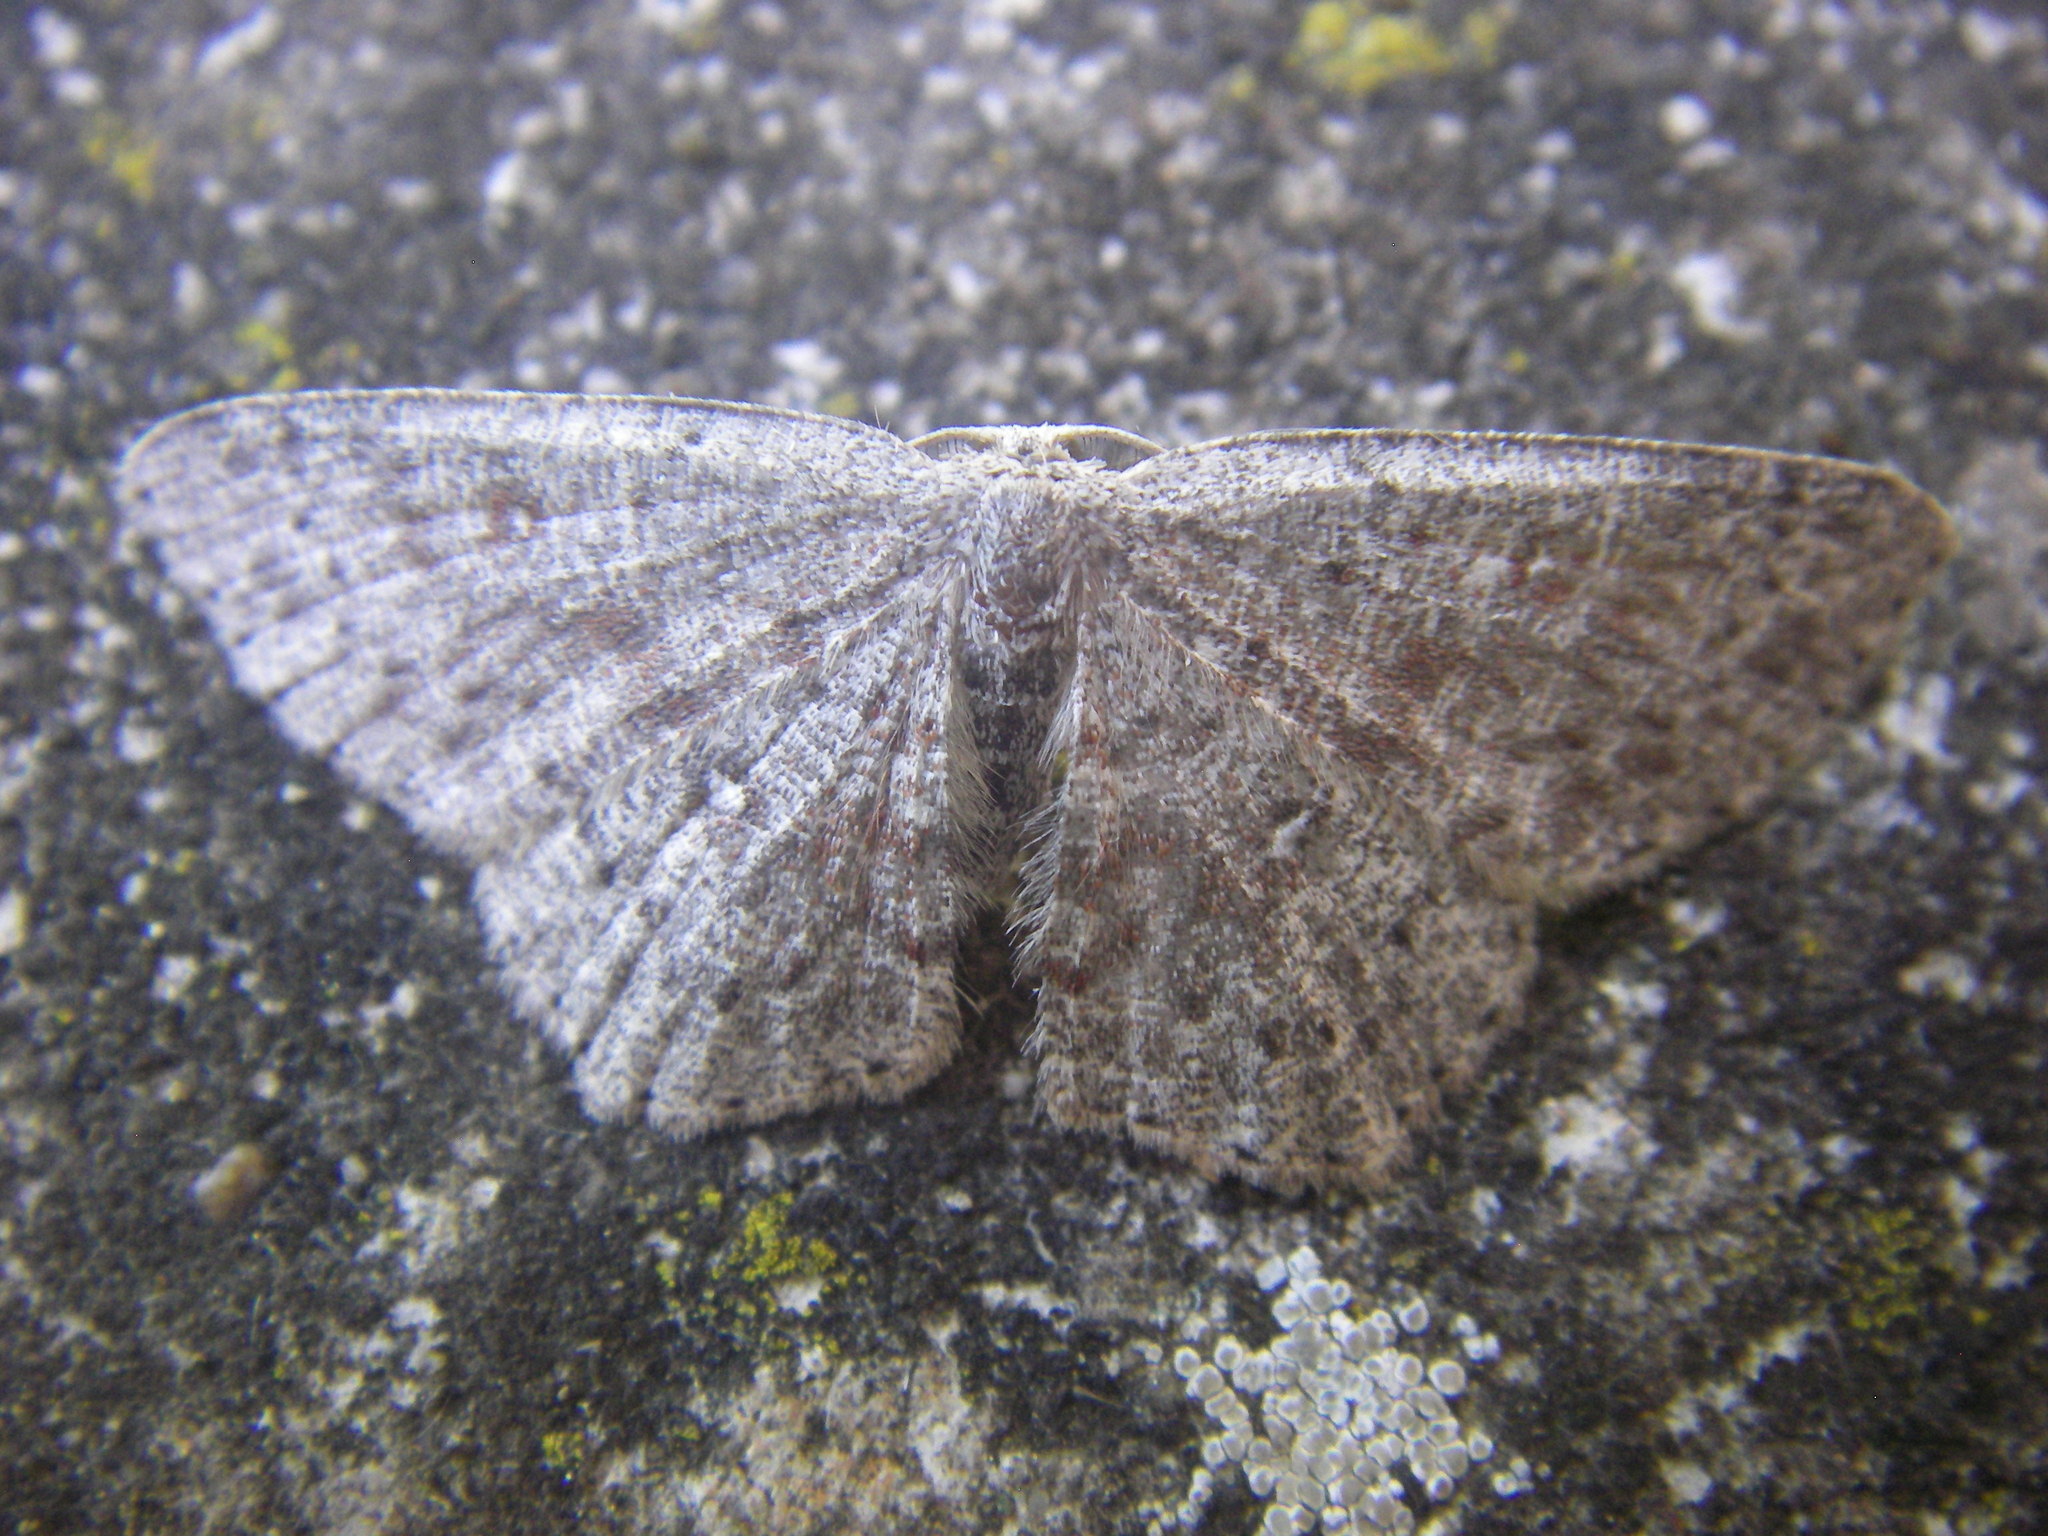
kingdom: Animalia
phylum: Arthropoda
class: Insecta
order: Lepidoptera
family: Geometridae
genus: Cyclophora
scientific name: Cyclophora pendularia
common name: Dingy mocha
